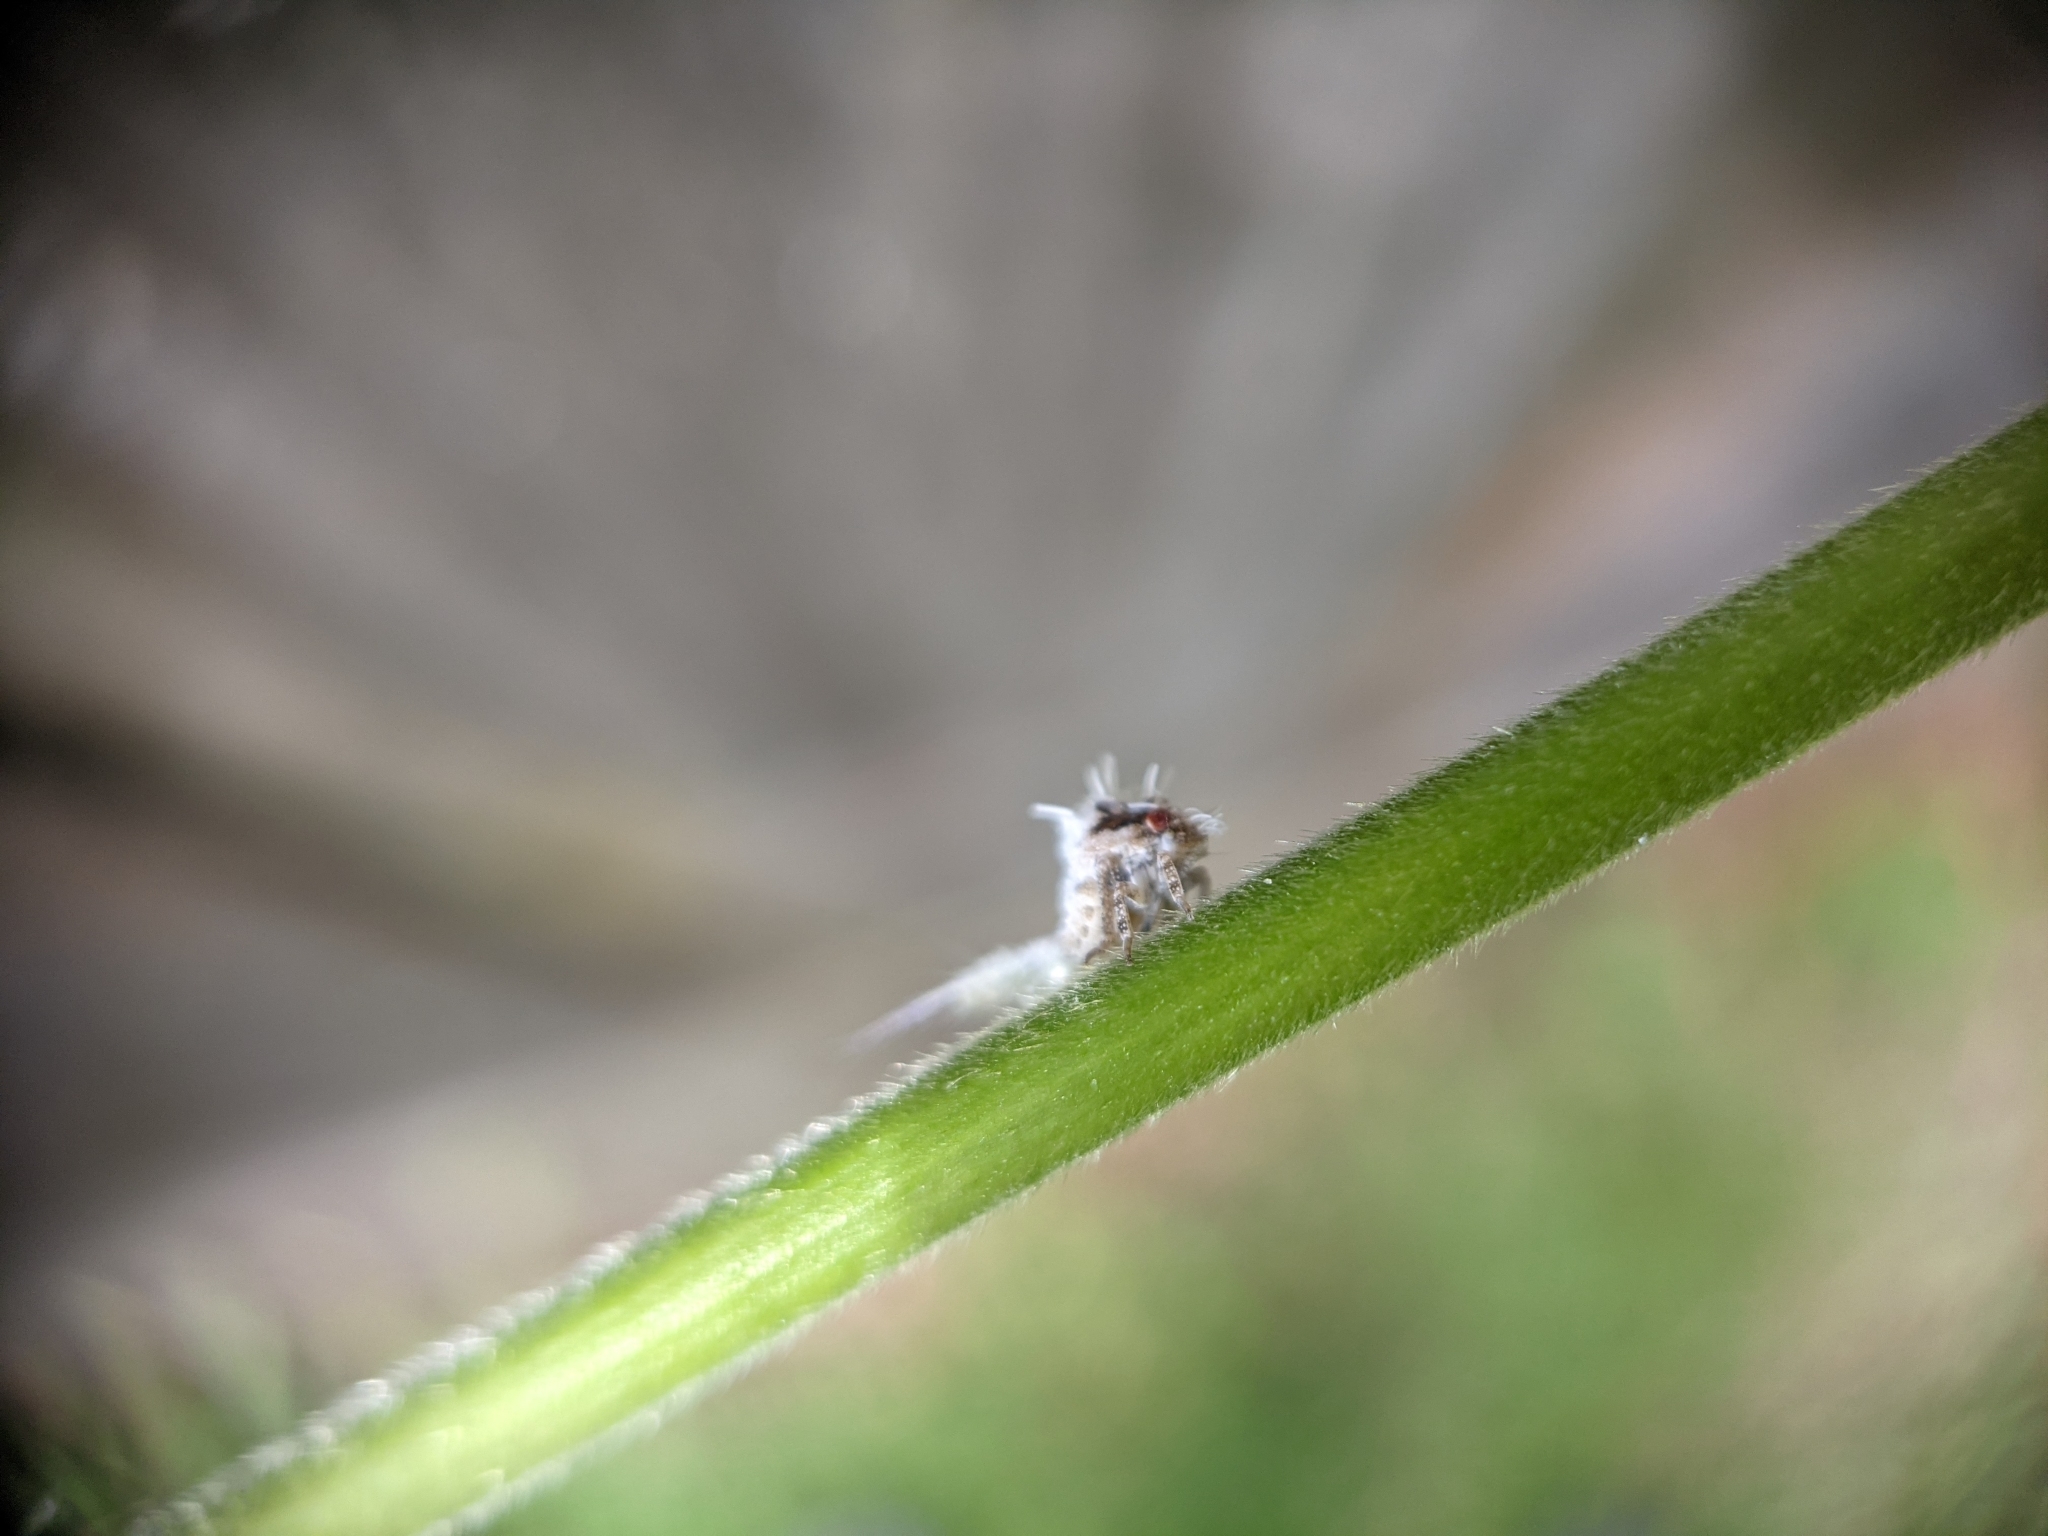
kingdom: Animalia
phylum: Arthropoda
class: Insecta
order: Hemiptera
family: Acanaloniidae
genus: Acanalonia
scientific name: Acanalonia servillei
